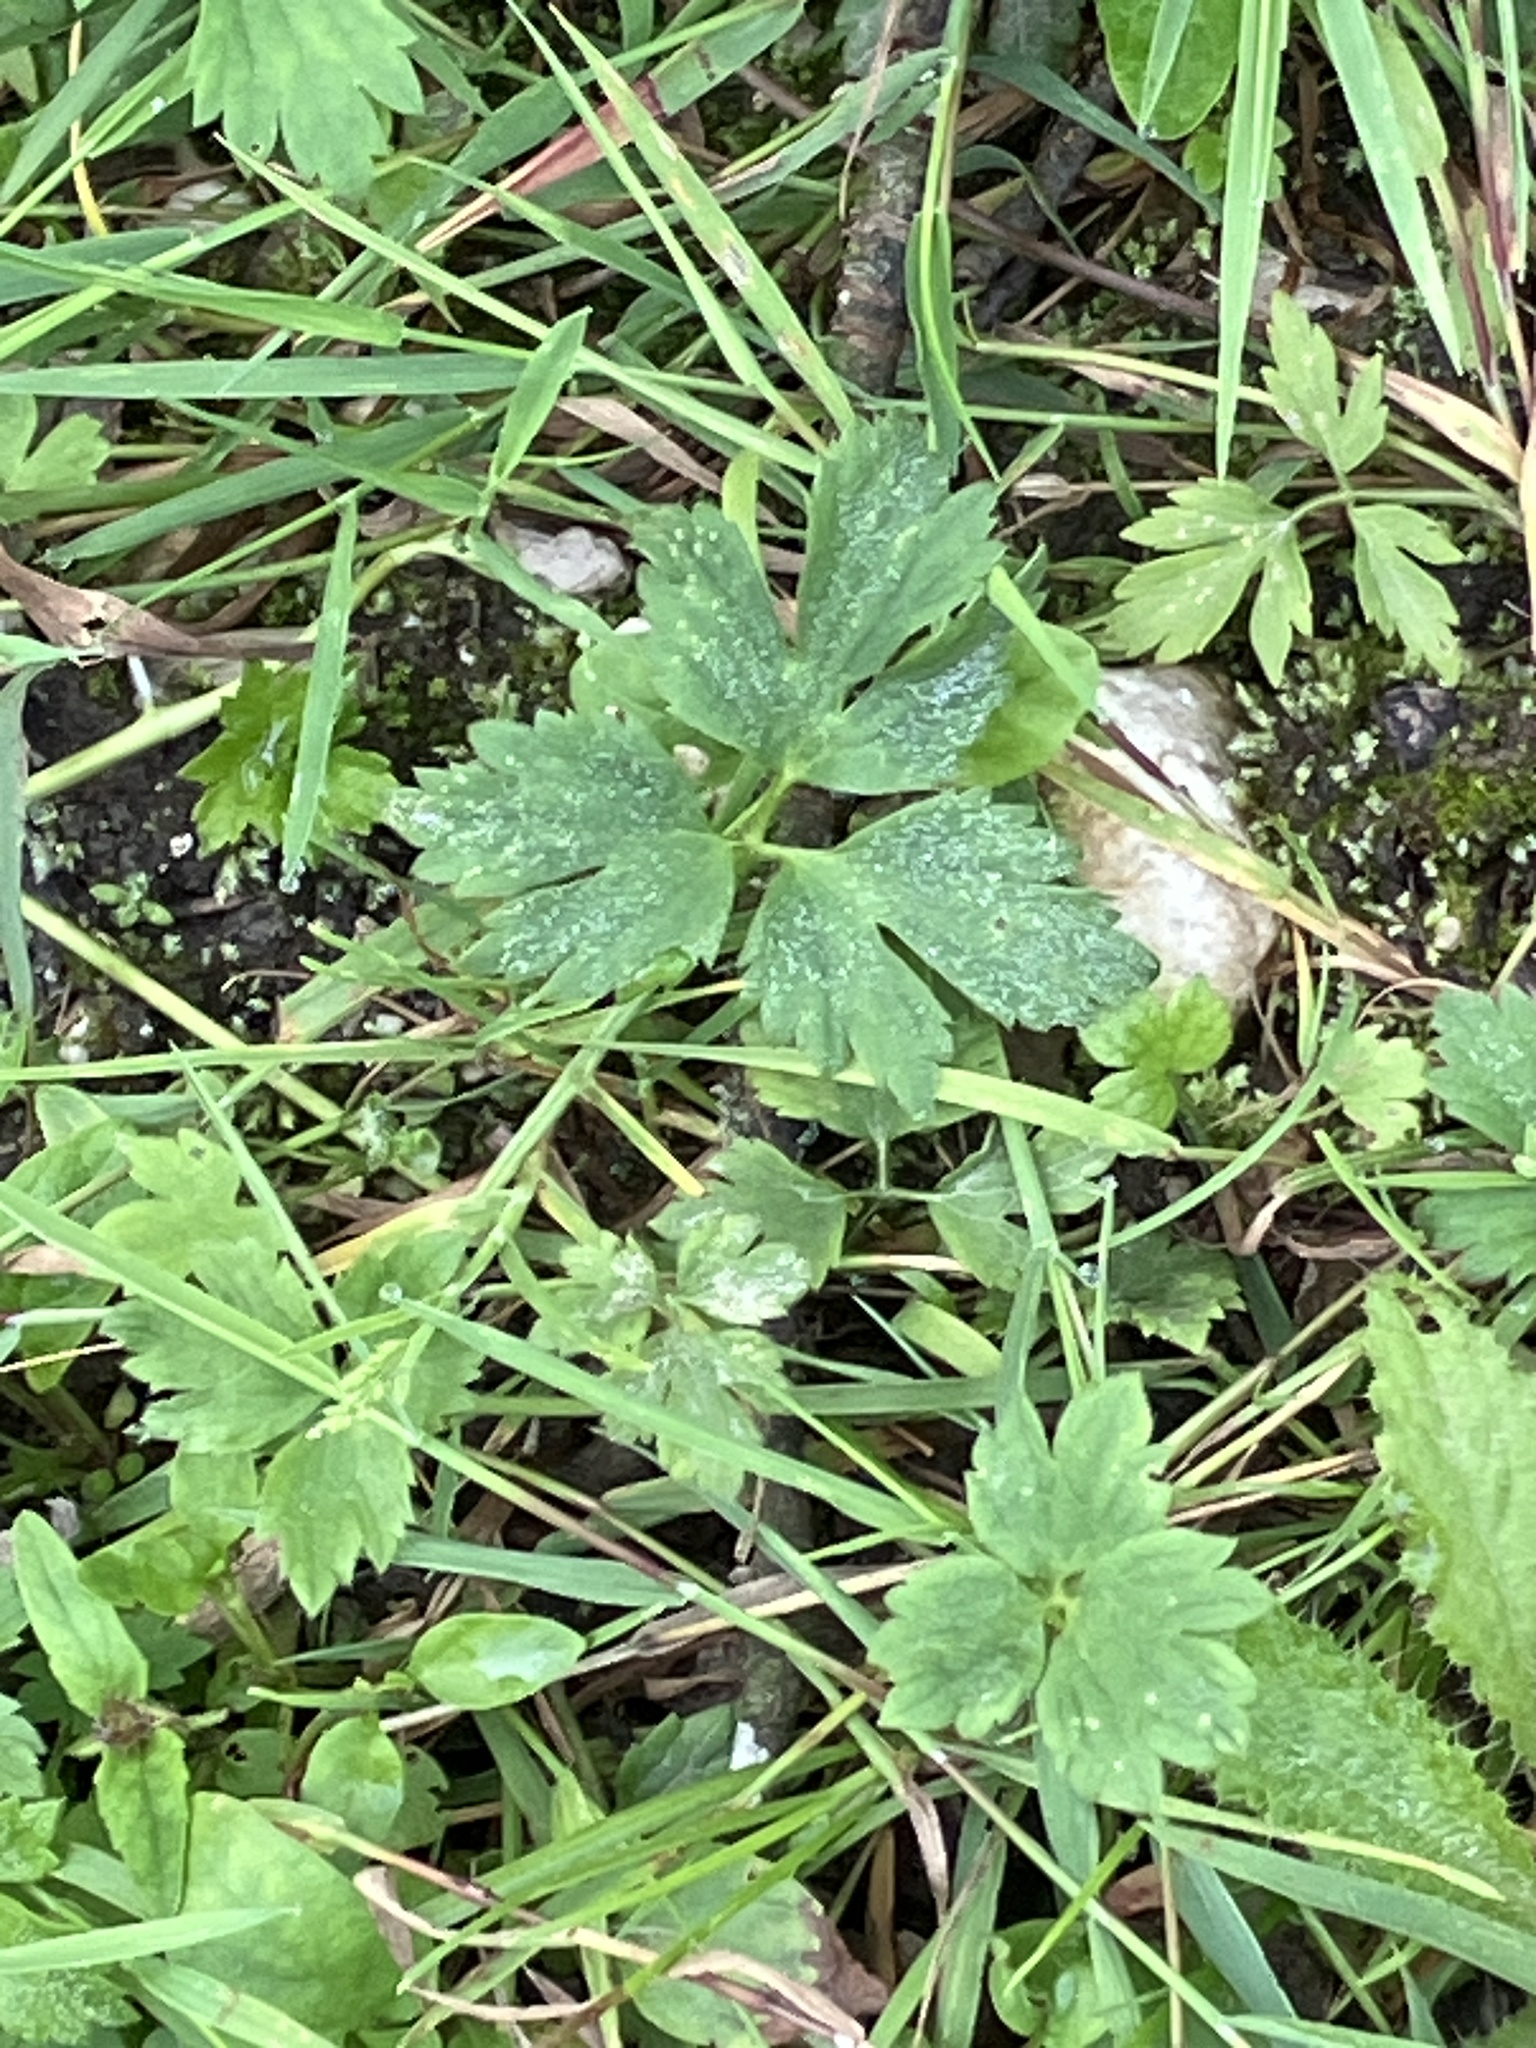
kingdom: Plantae
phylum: Tracheophyta
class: Magnoliopsida
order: Ranunculales
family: Ranunculaceae
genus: Ranunculus
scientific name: Ranunculus repens
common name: Creeping buttercup
